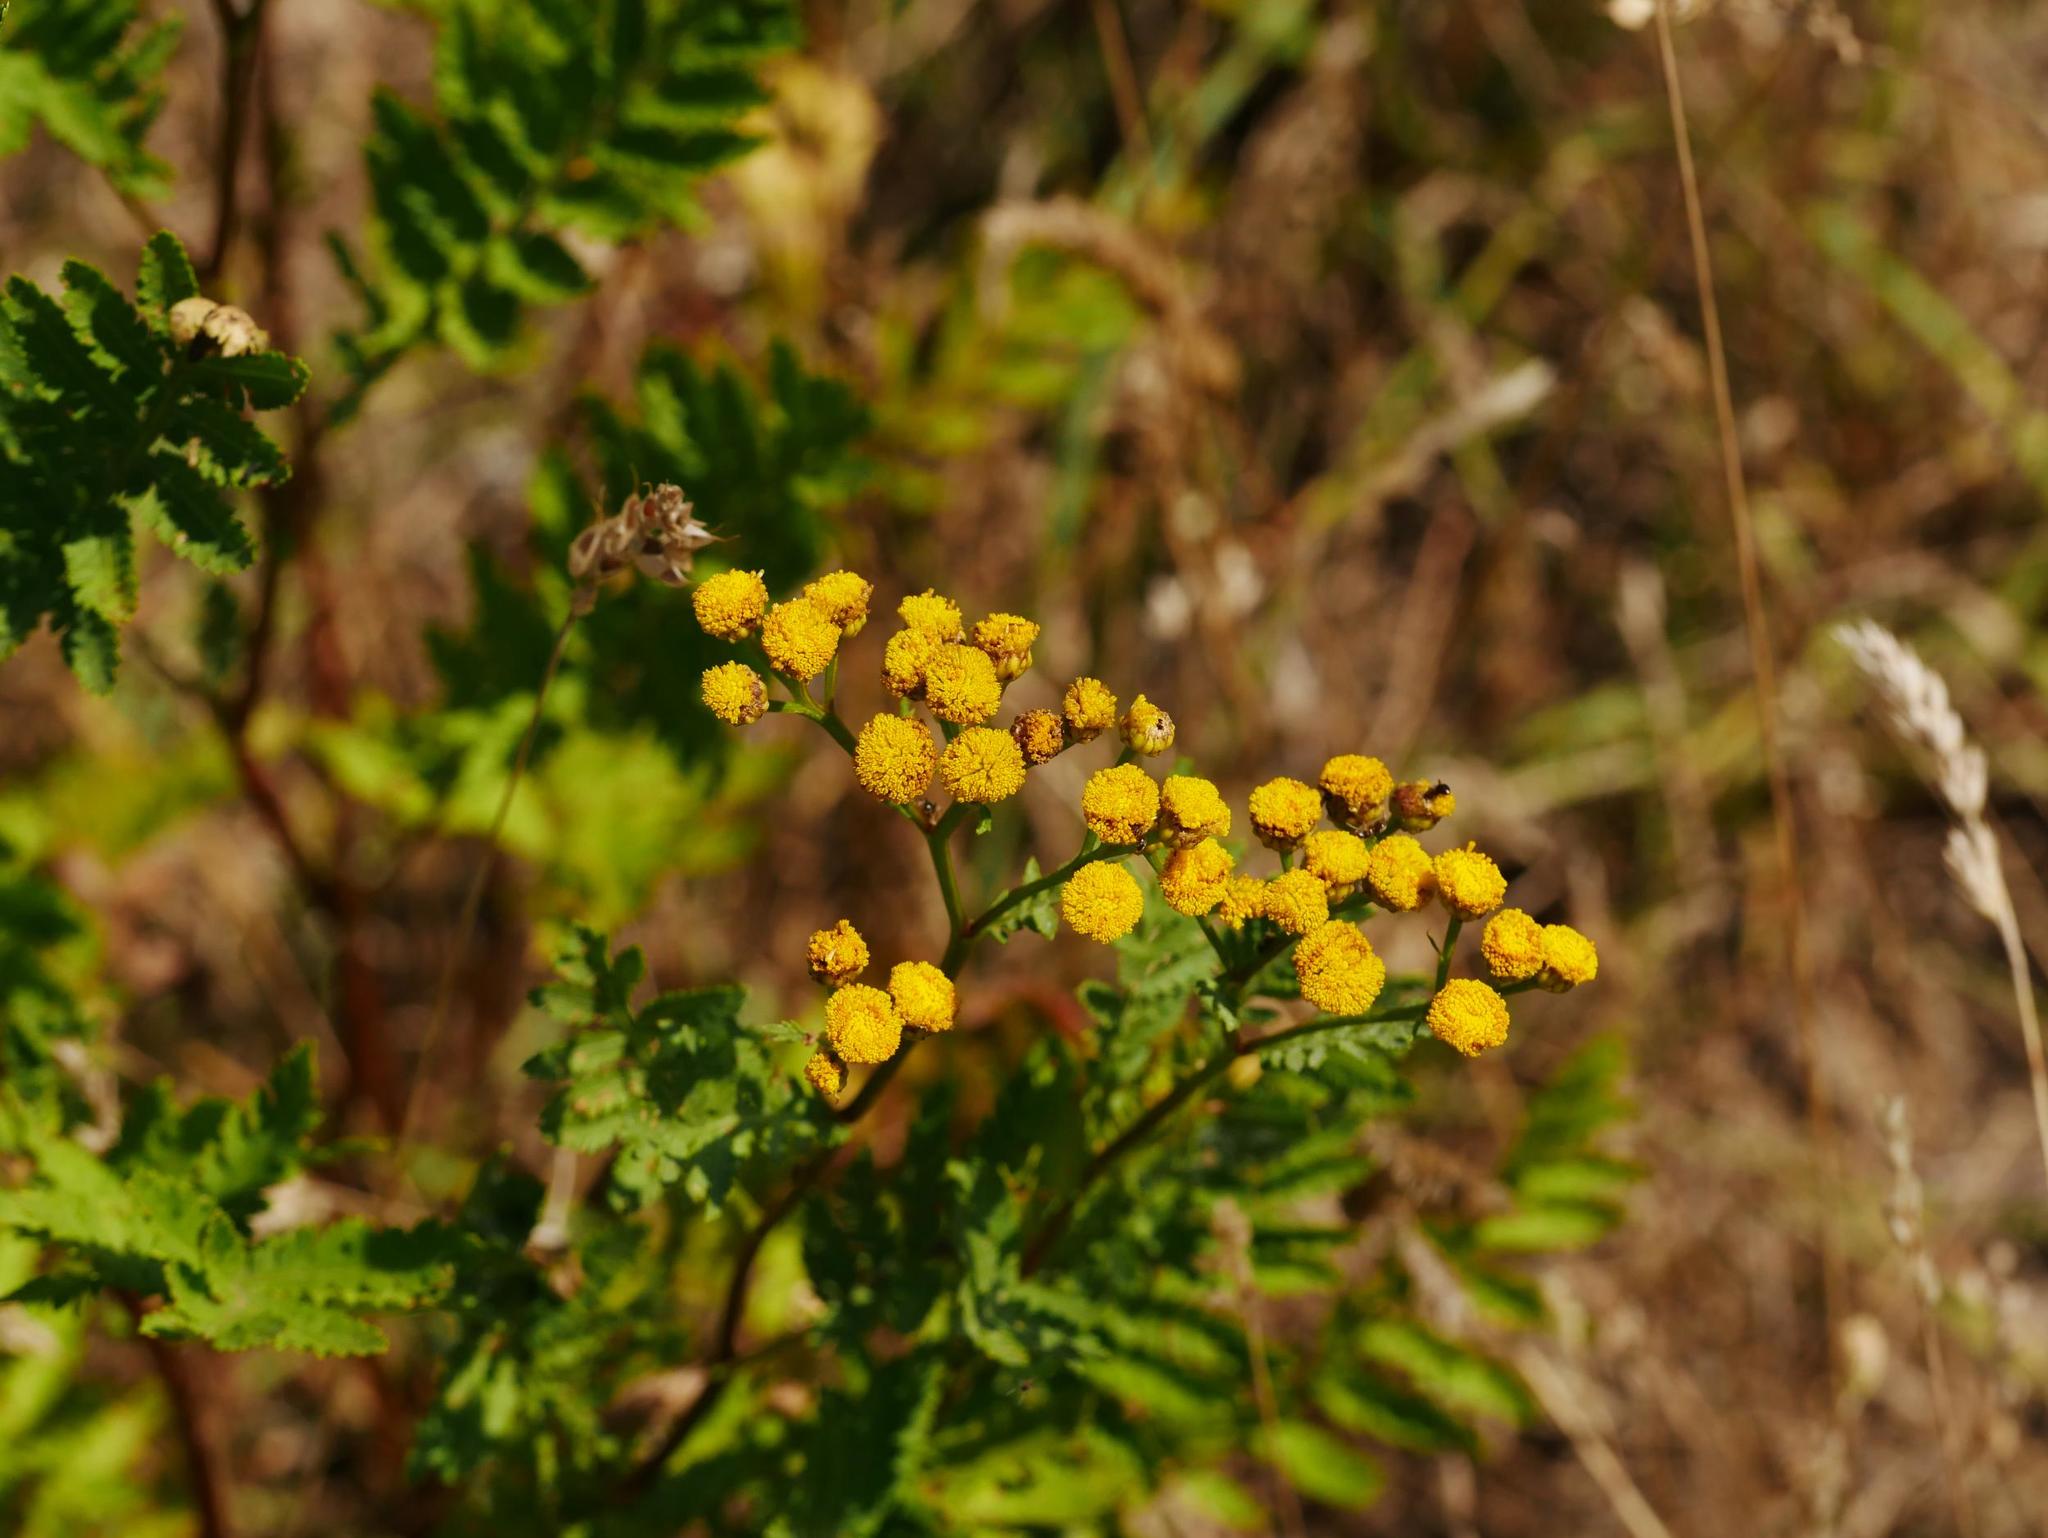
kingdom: Plantae
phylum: Tracheophyta
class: Magnoliopsida
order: Asterales
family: Asteraceae
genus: Tanacetum
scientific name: Tanacetum vulgare
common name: Common tansy
